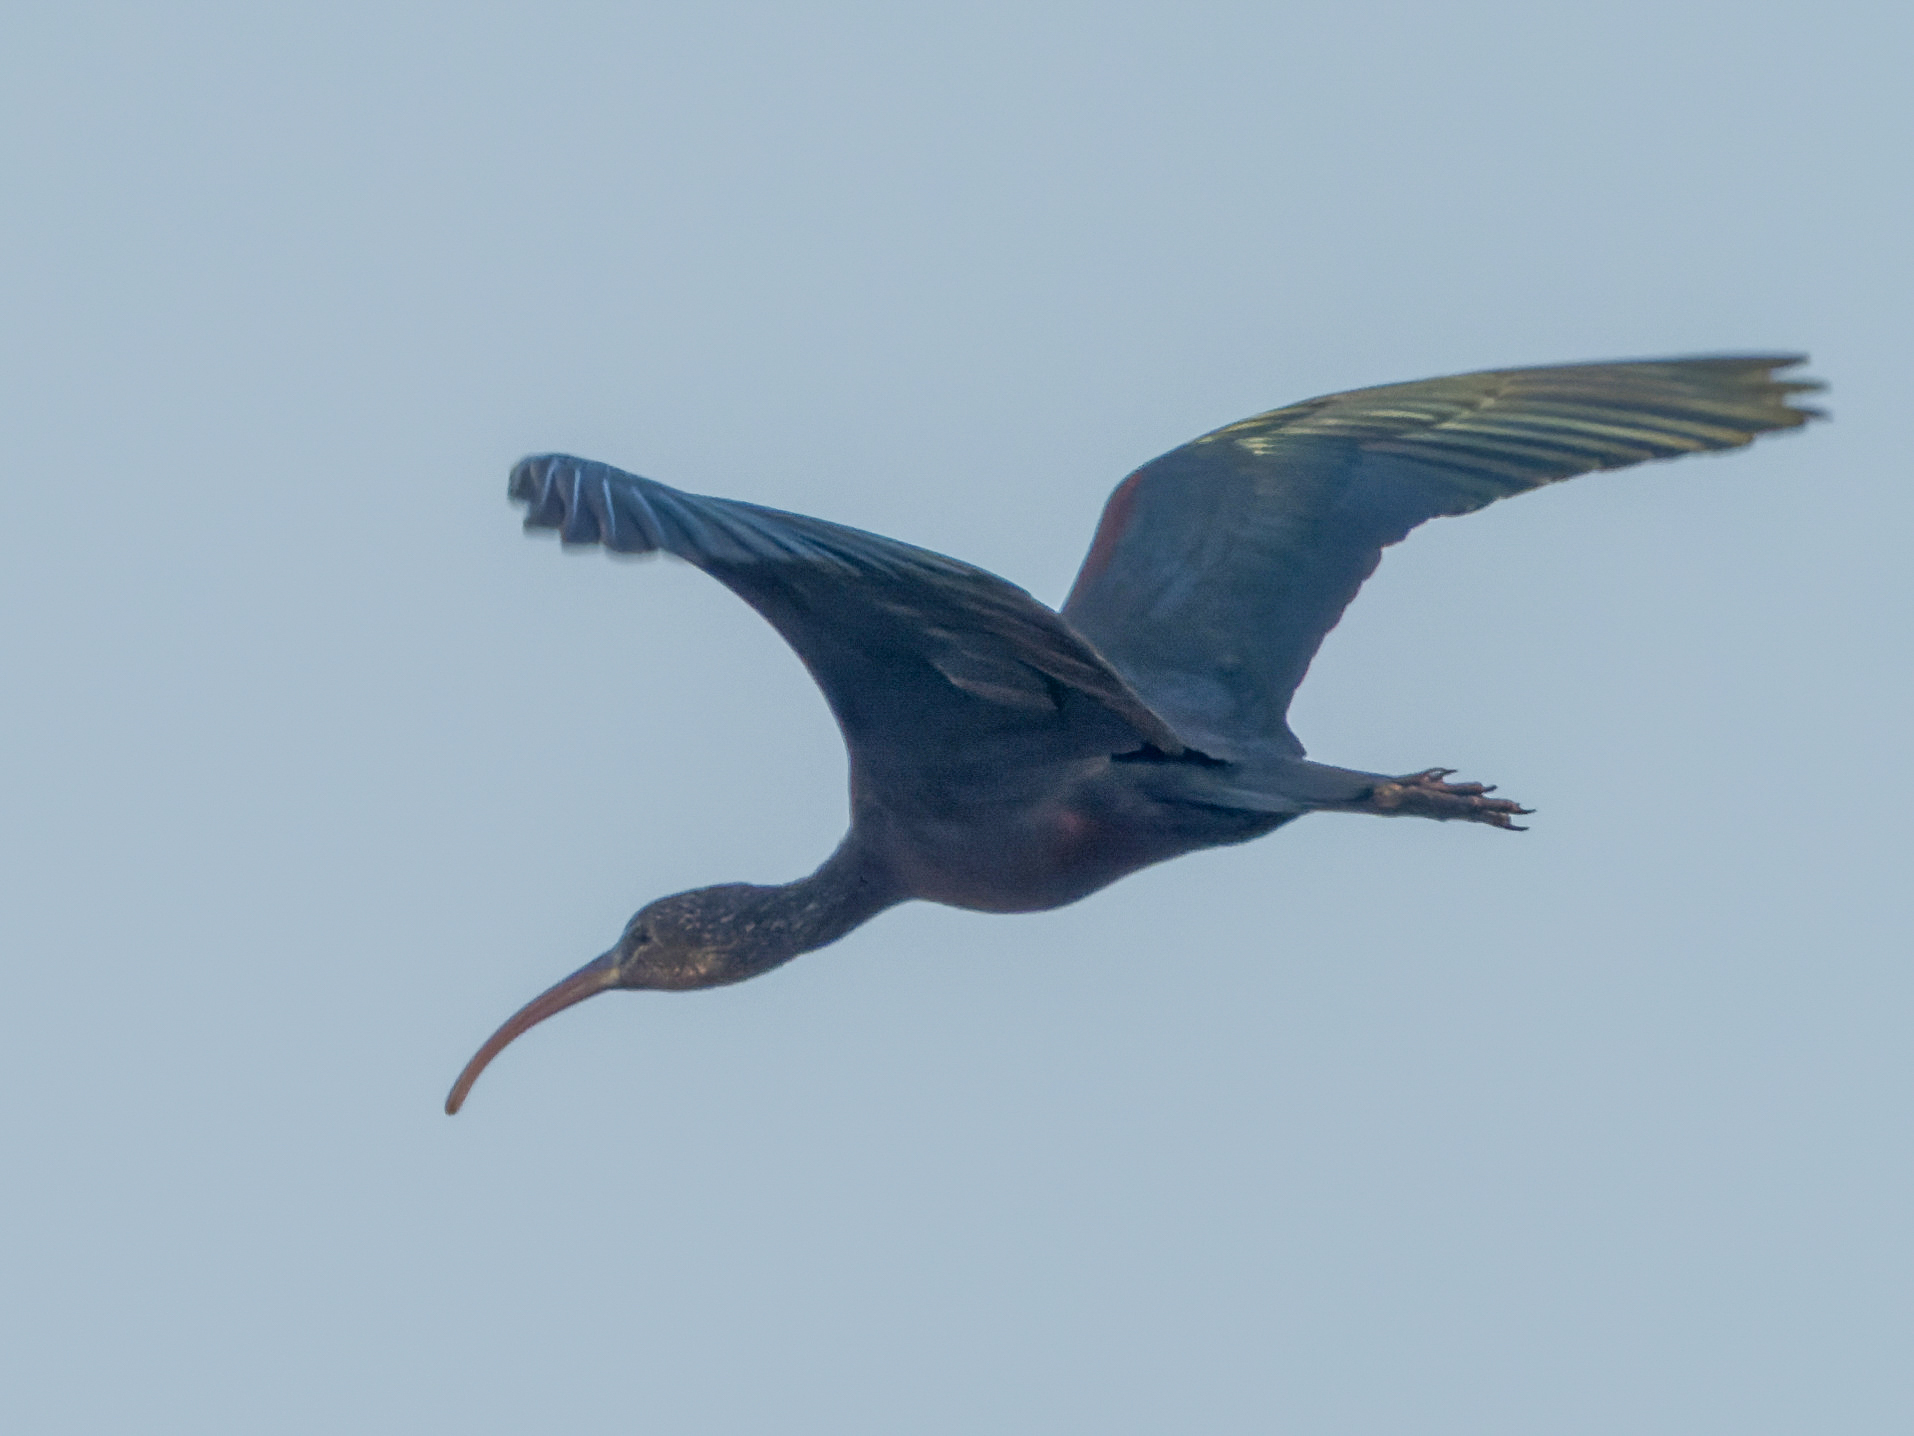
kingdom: Animalia
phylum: Chordata
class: Aves
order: Pelecaniformes
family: Threskiornithidae
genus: Plegadis
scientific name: Plegadis falcinellus
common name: Glossy ibis
